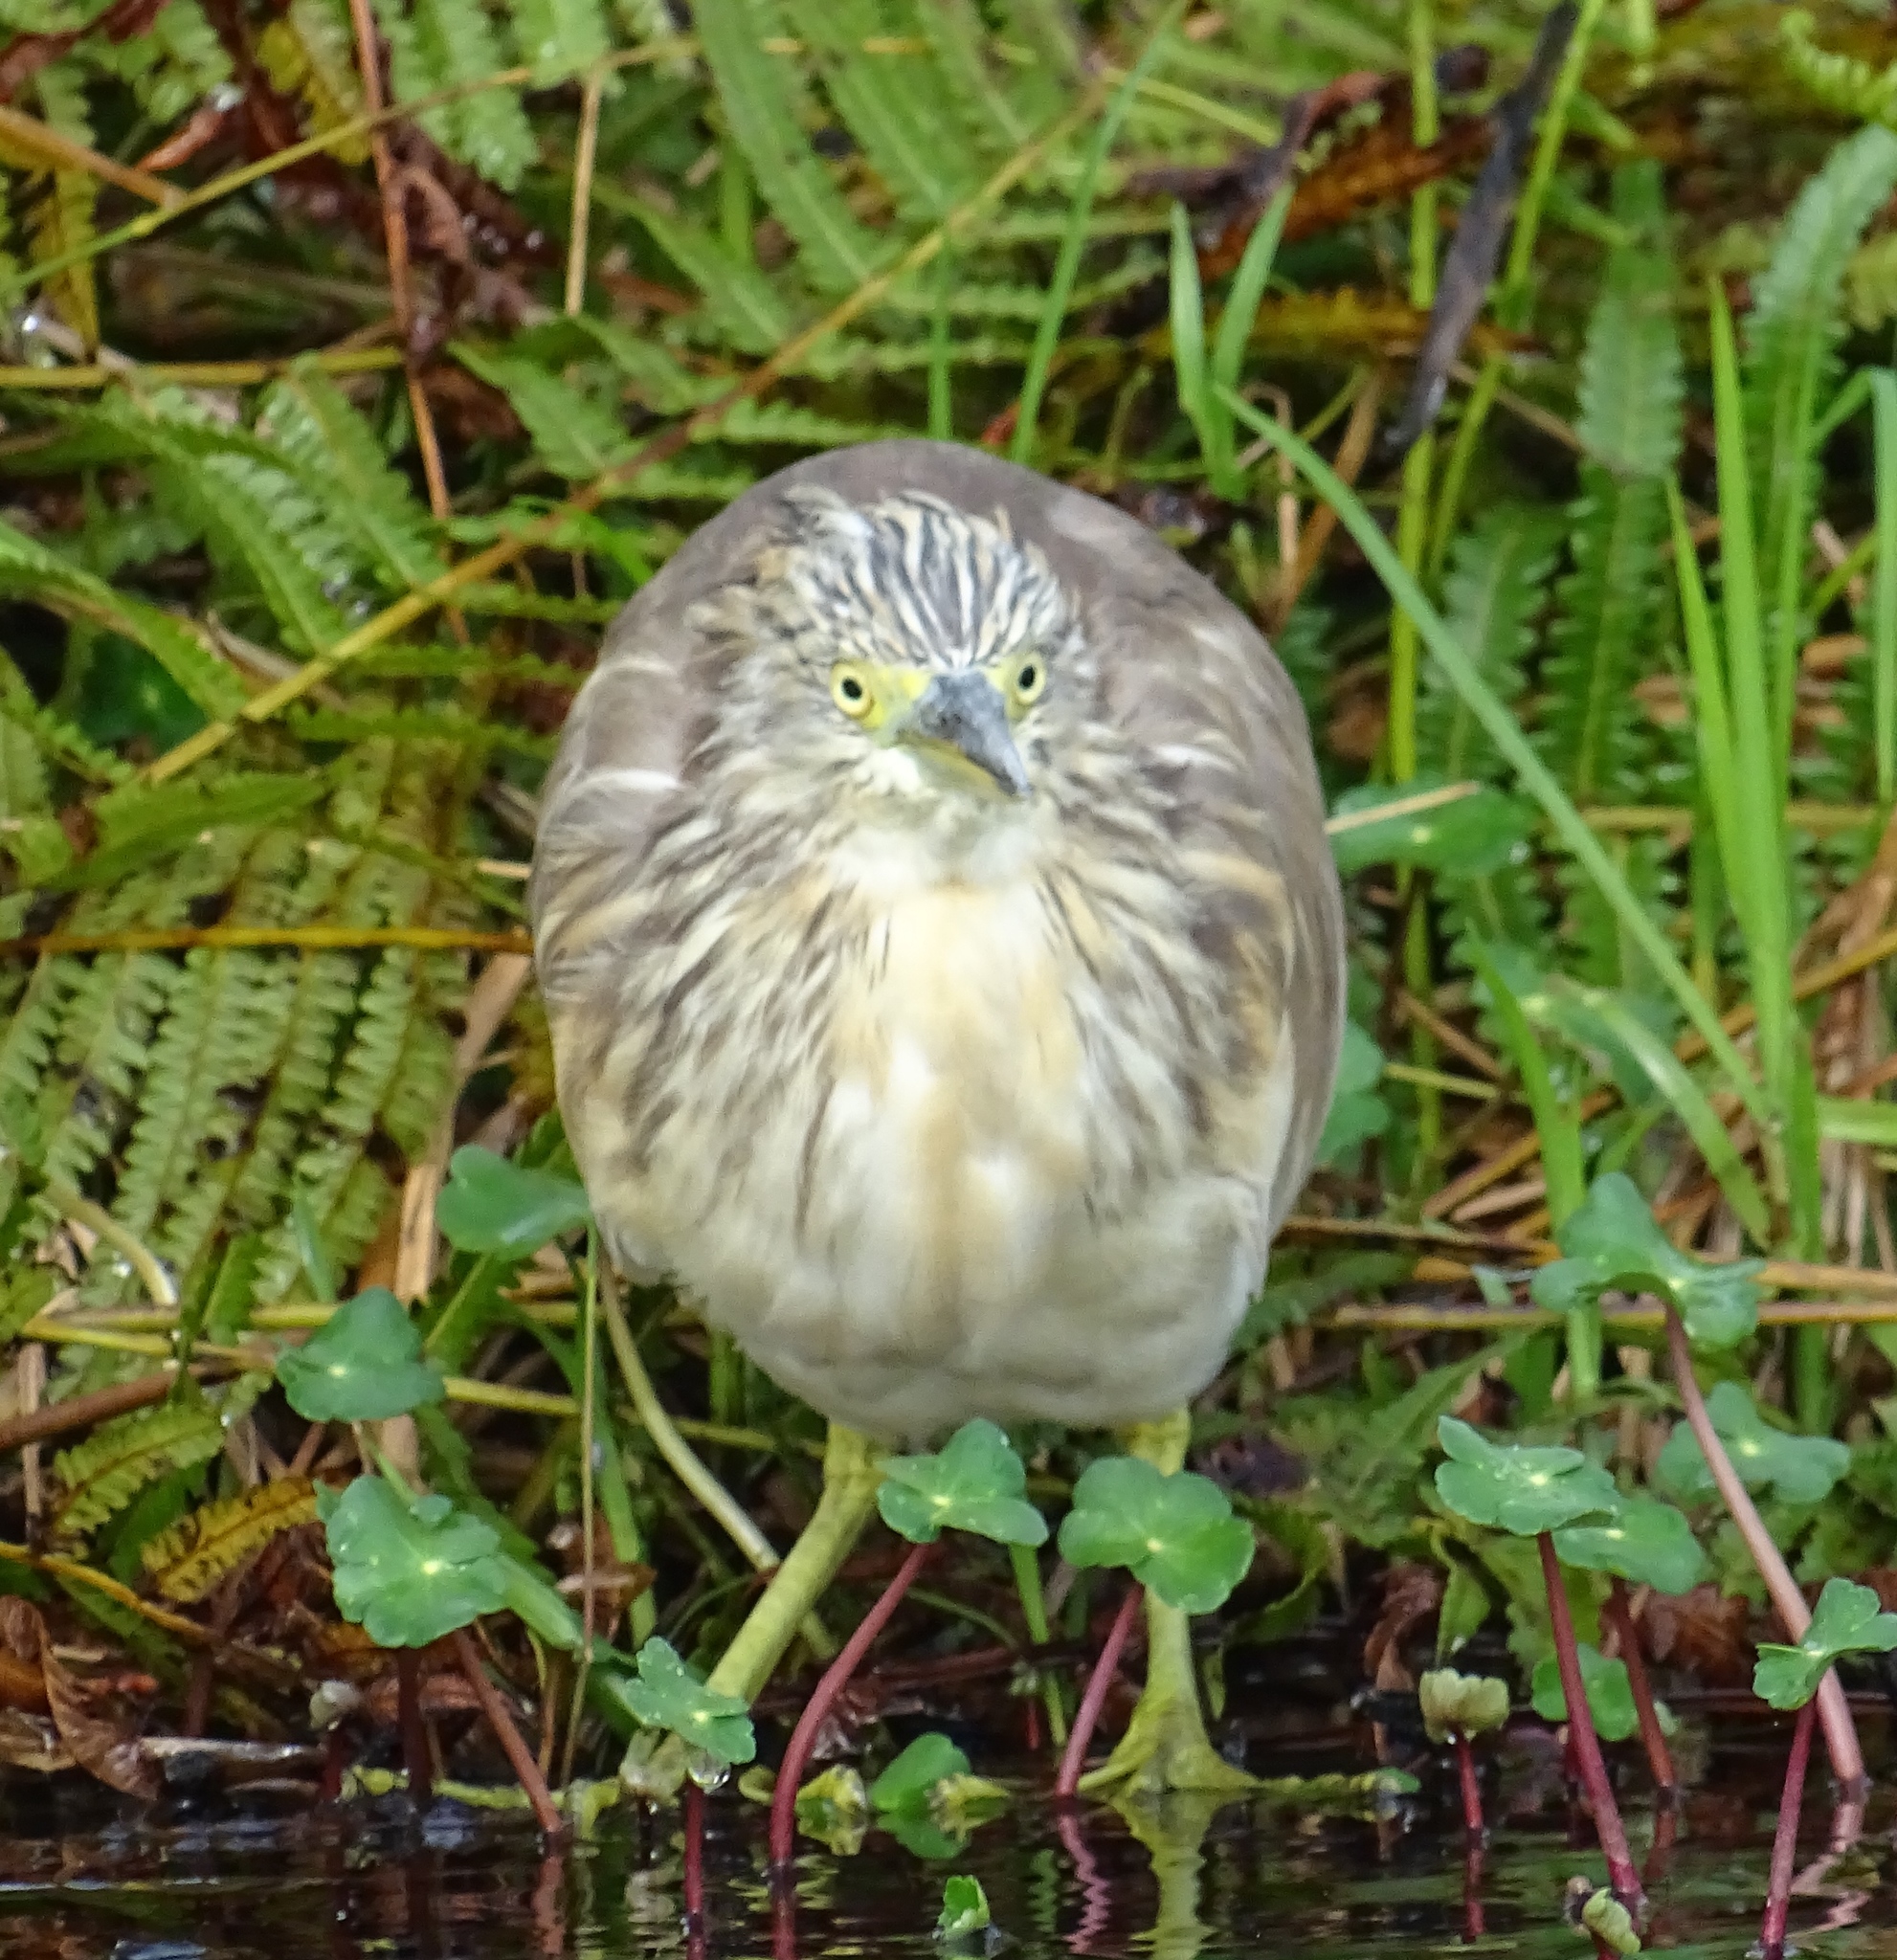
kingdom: Animalia
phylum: Chordata
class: Aves
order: Pelecaniformes
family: Ardeidae
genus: Ardeola
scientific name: Ardeola ralloides
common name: Squacco heron
